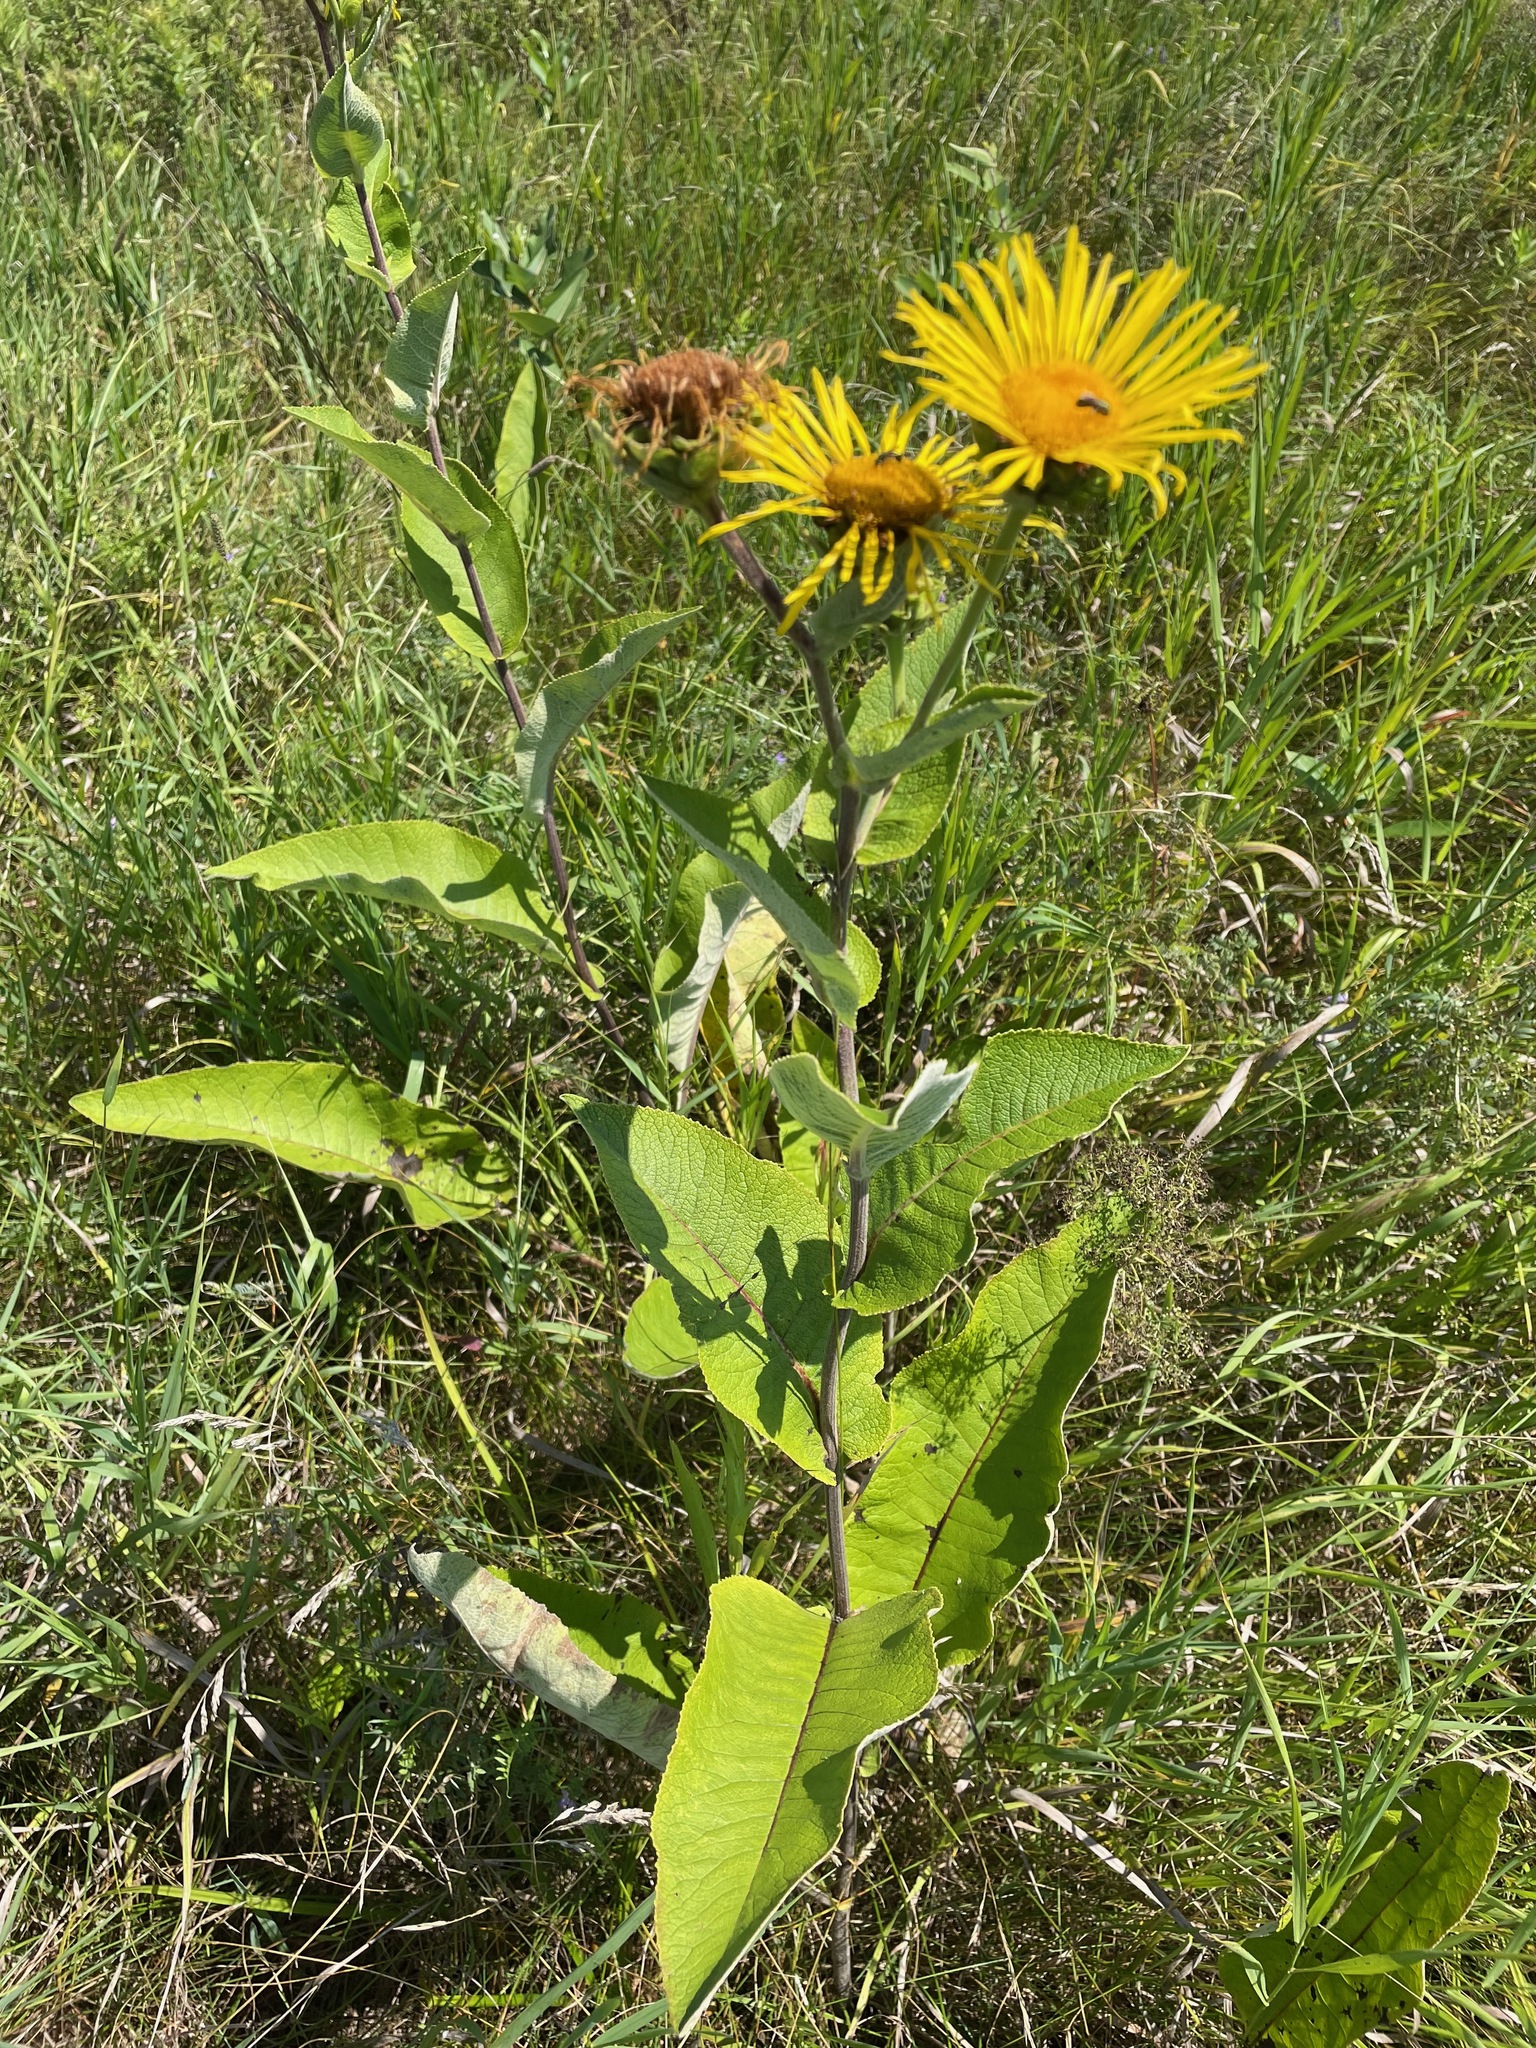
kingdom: Plantae
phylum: Tracheophyta
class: Magnoliopsida
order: Asterales
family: Asteraceae
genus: Inula
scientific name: Inula helenium
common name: Elecampane
